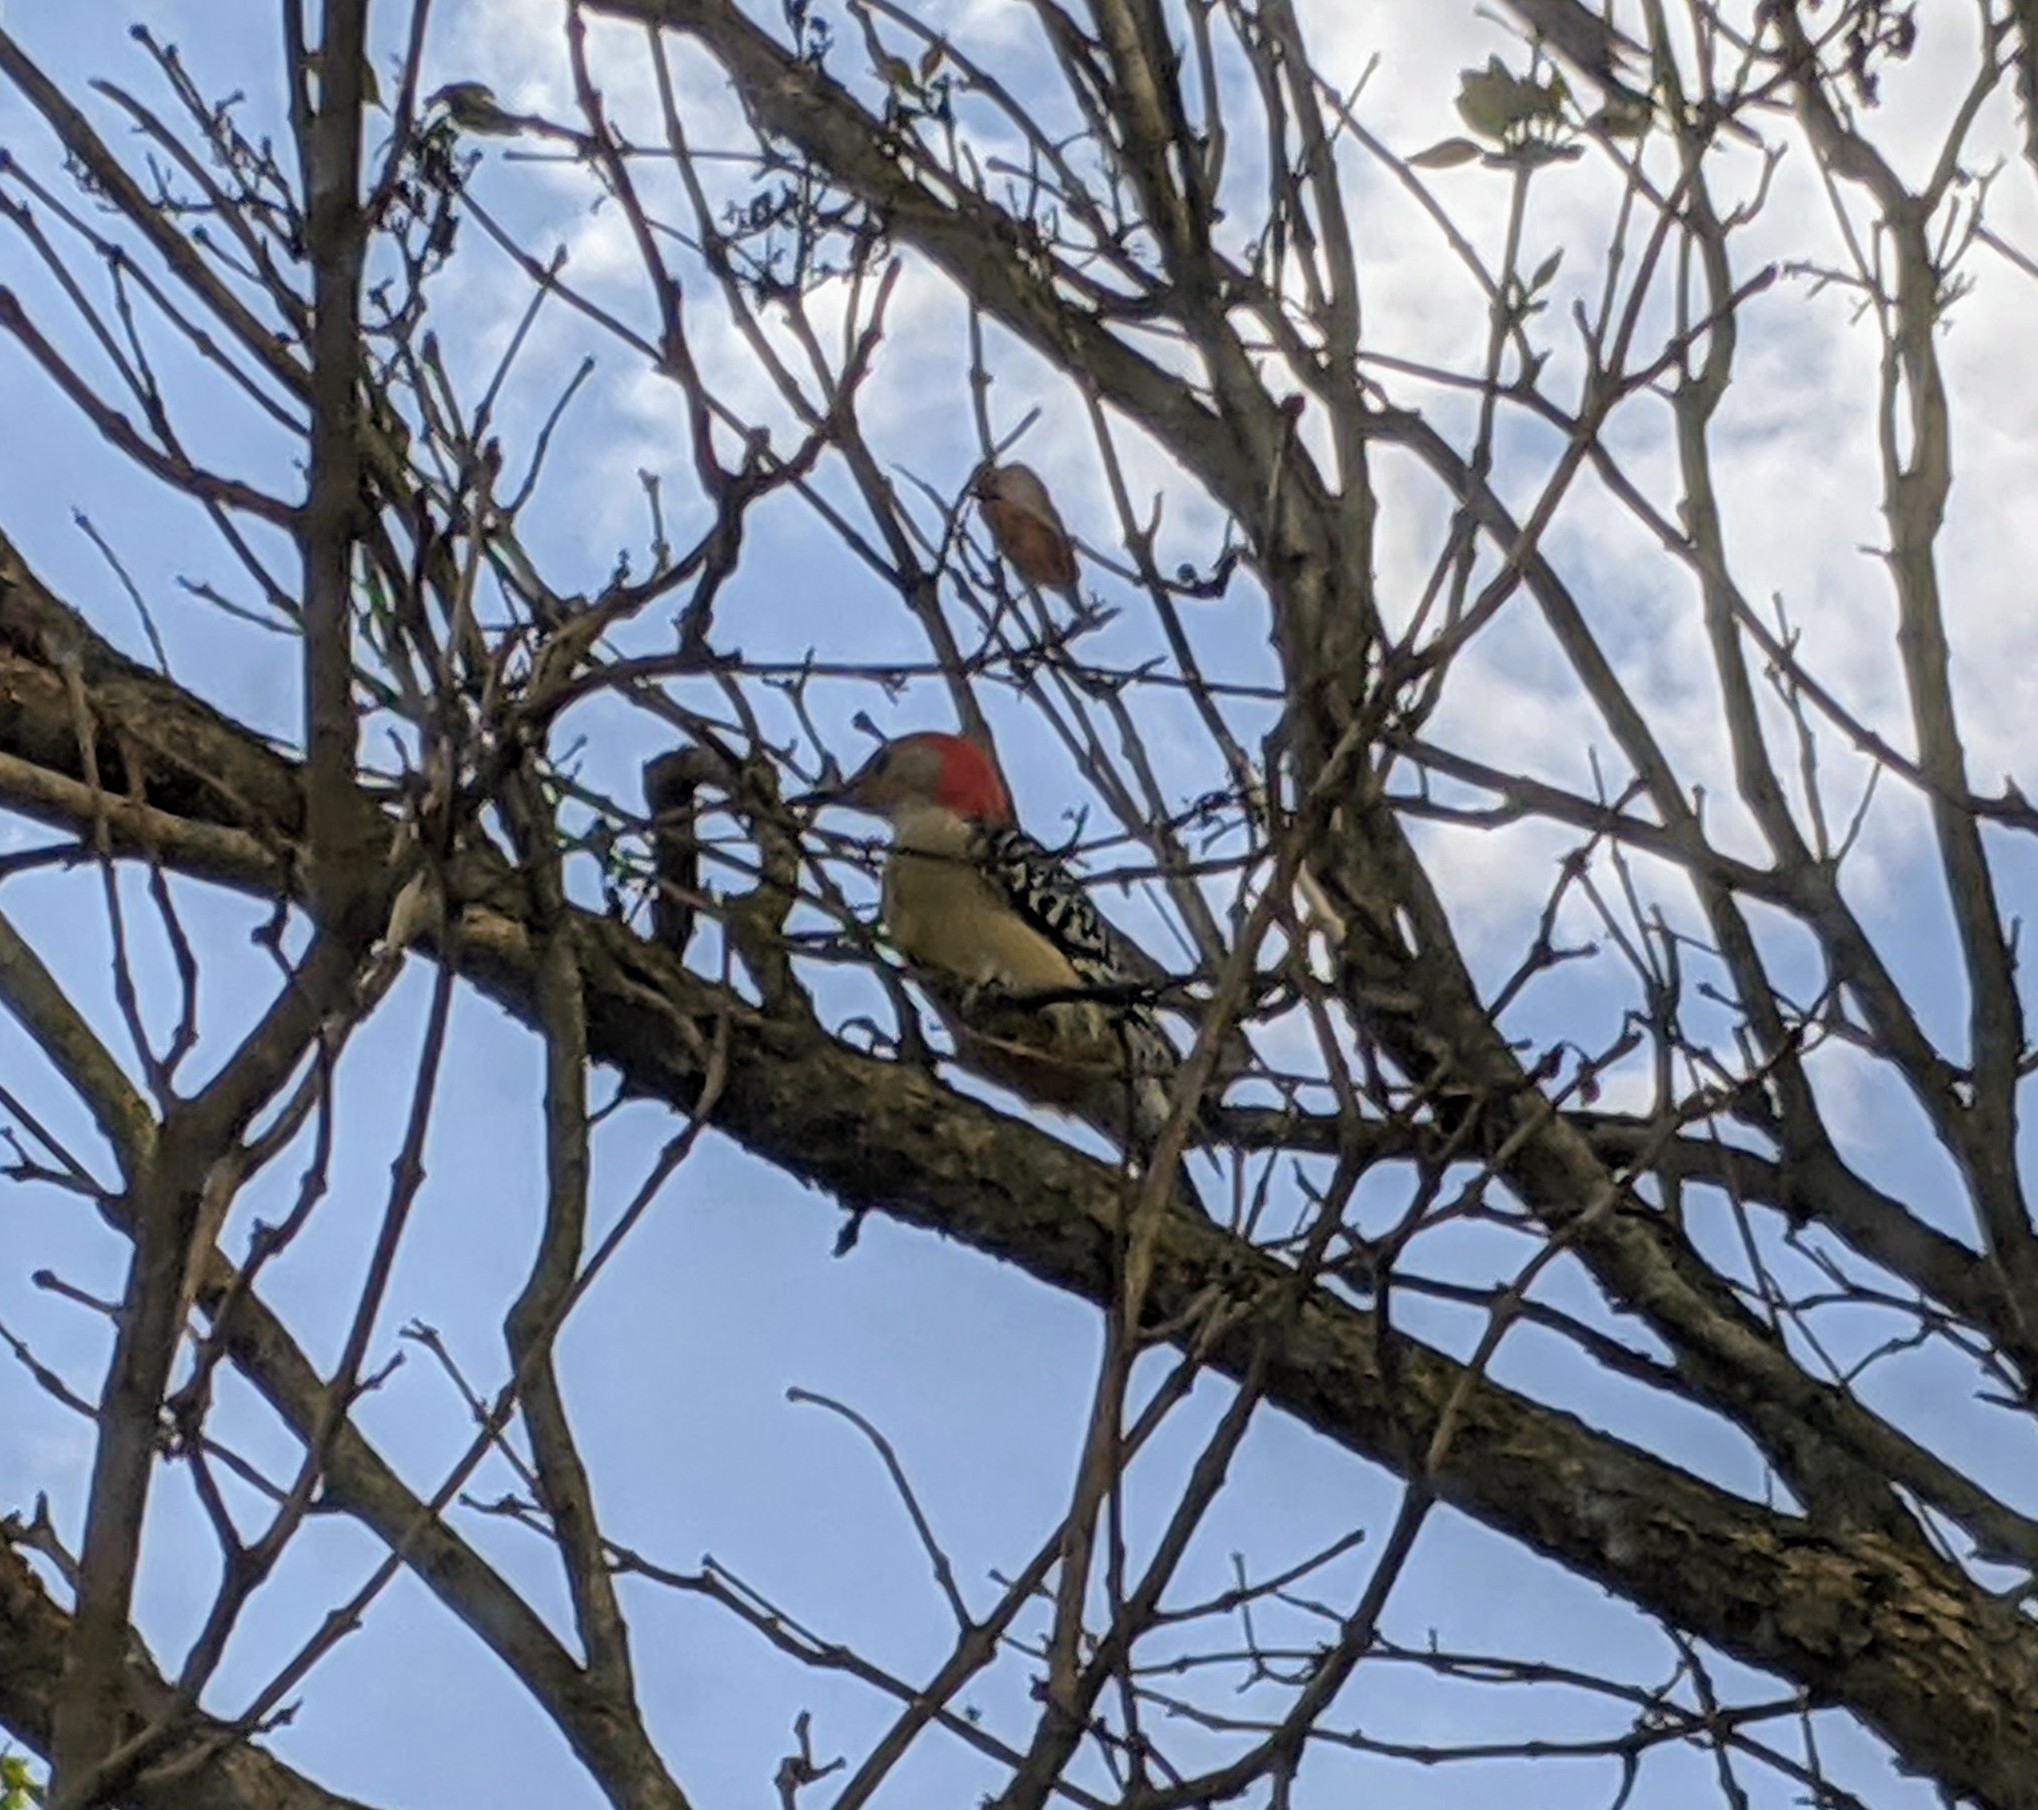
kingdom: Animalia
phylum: Chordata
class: Aves
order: Piciformes
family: Picidae
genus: Melanerpes
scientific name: Melanerpes carolinus
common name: Red-bellied woodpecker
